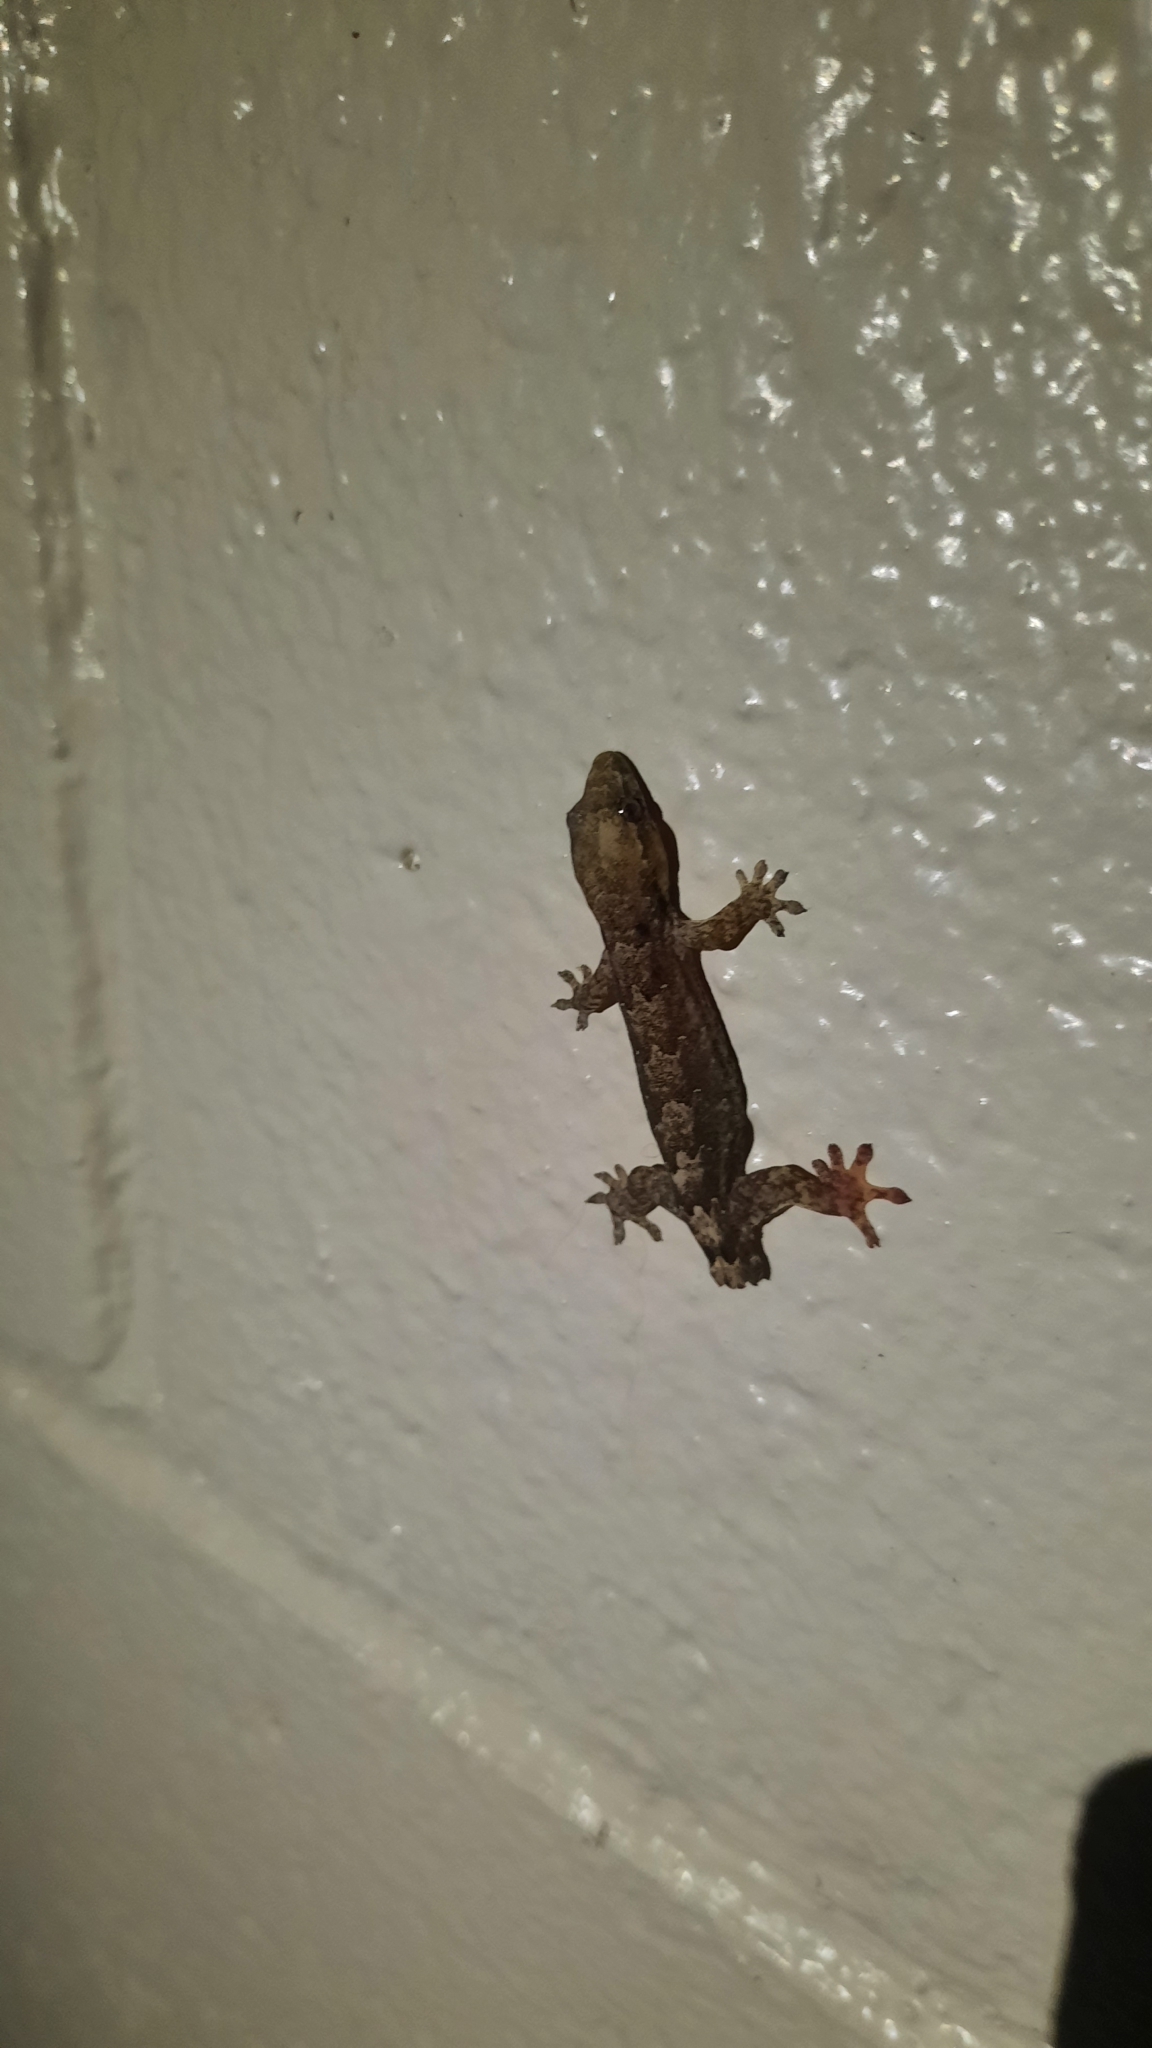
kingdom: Animalia
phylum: Chordata
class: Squamata
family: Gekkonidae
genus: Lepidodactylus
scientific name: Lepidodactylus lugubris
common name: Mourning gecko
